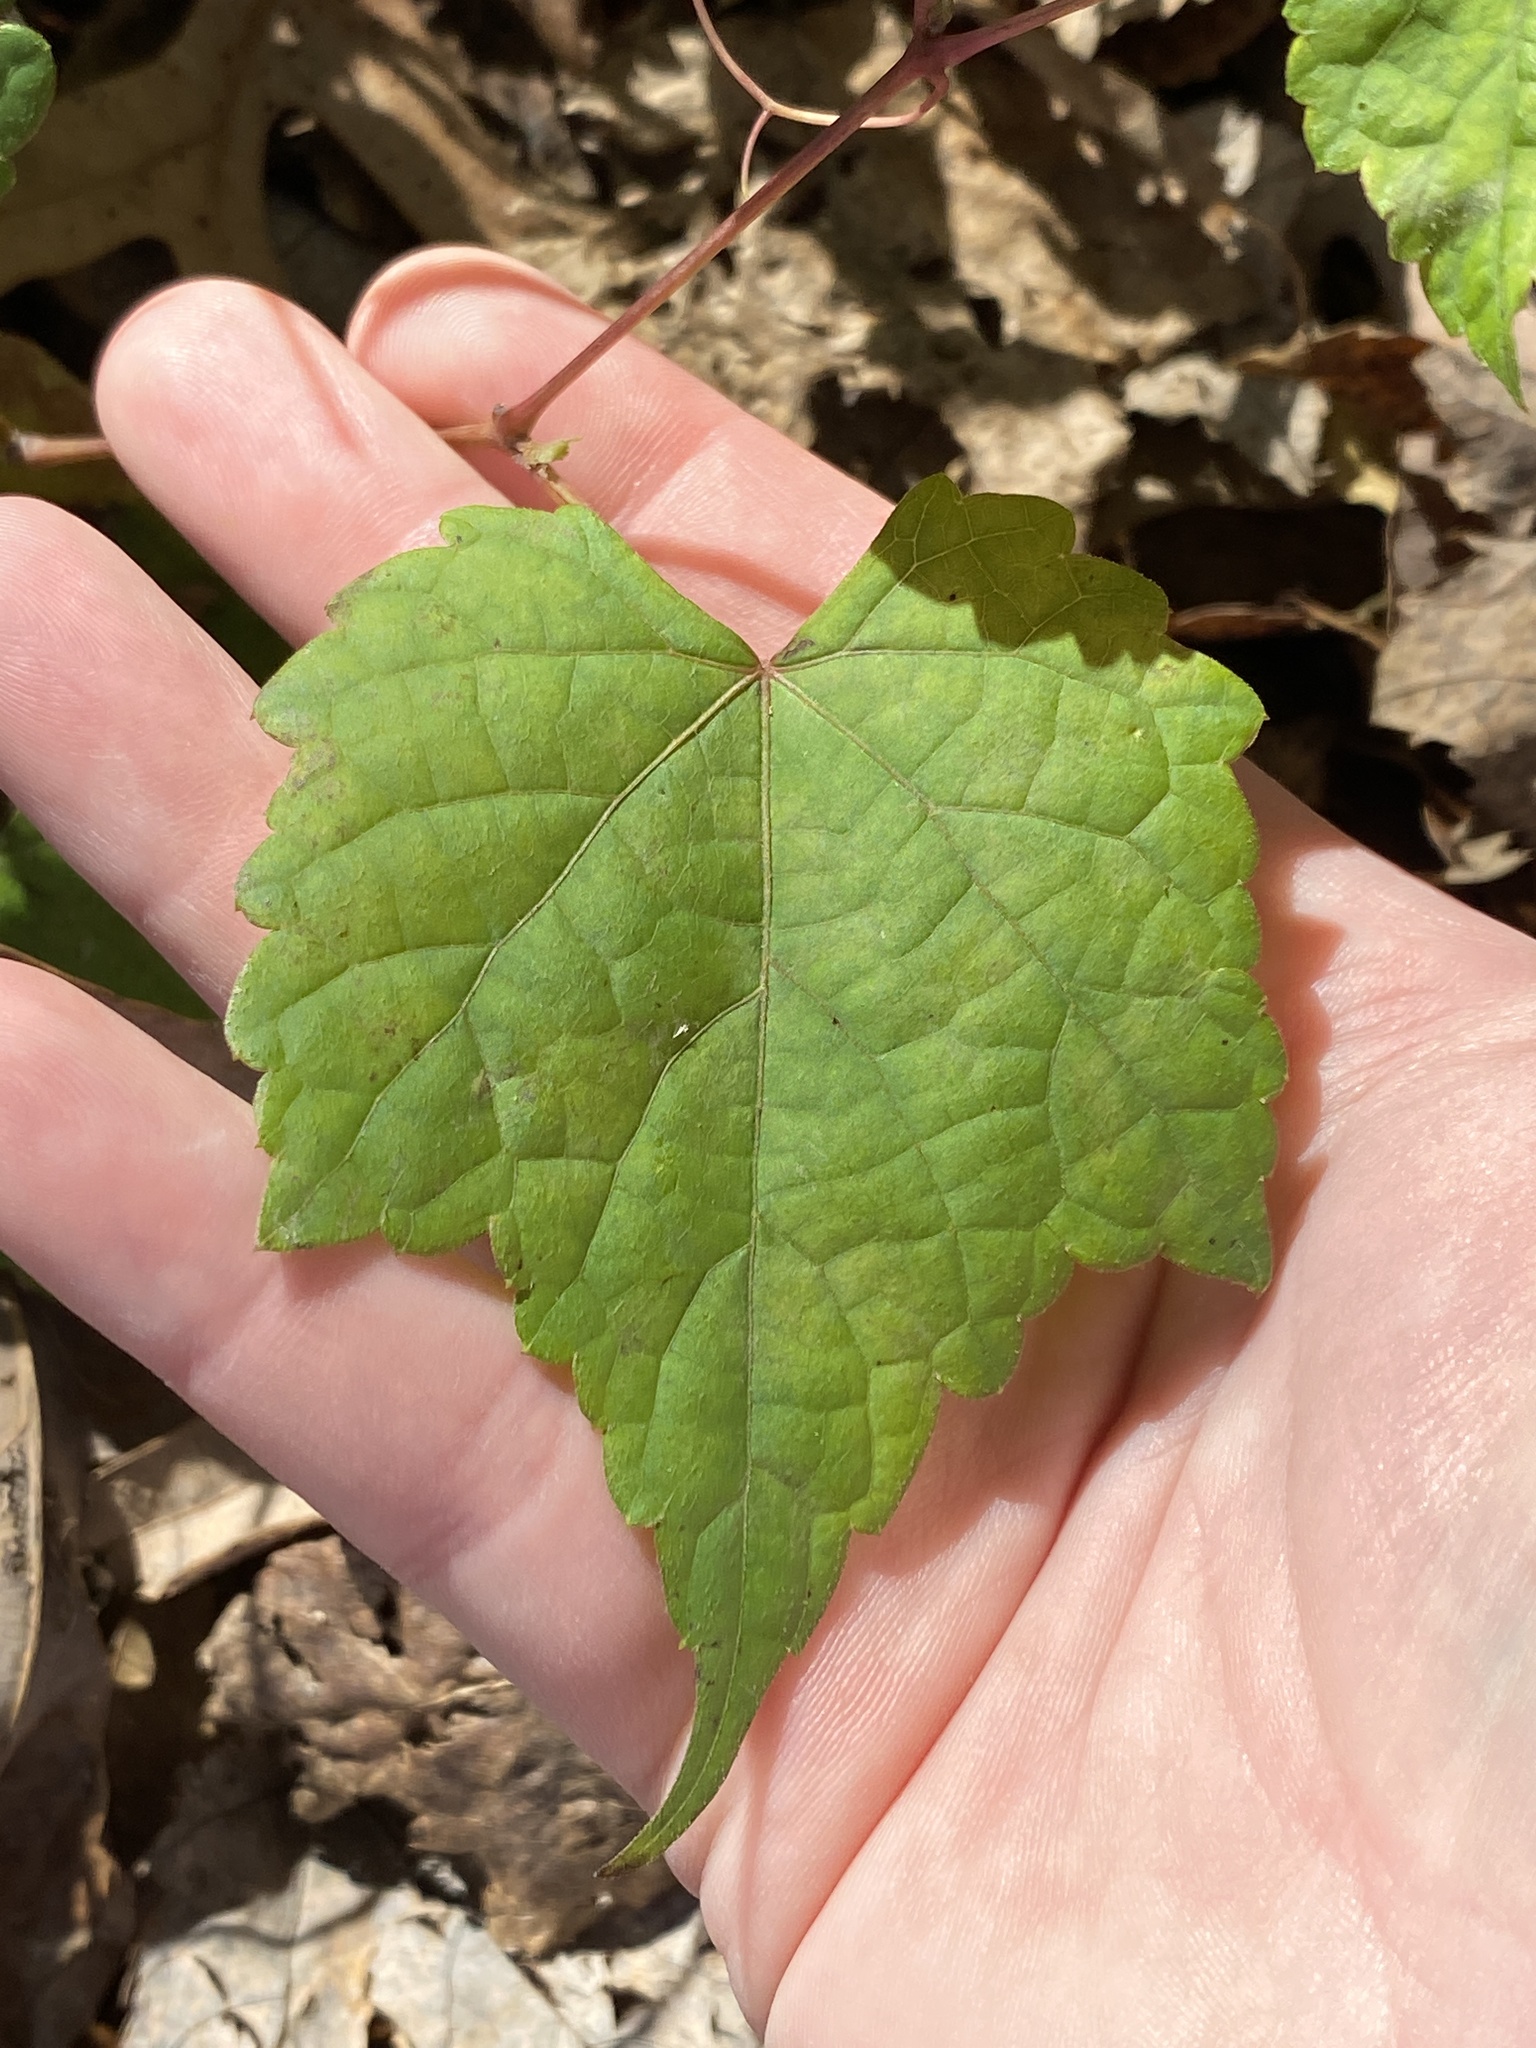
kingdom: Plantae
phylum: Tracheophyta
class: Magnoliopsida
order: Vitales
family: Vitaceae
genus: Ampelopsis
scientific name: Ampelopsis glandulosa
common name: Amur peppervine
